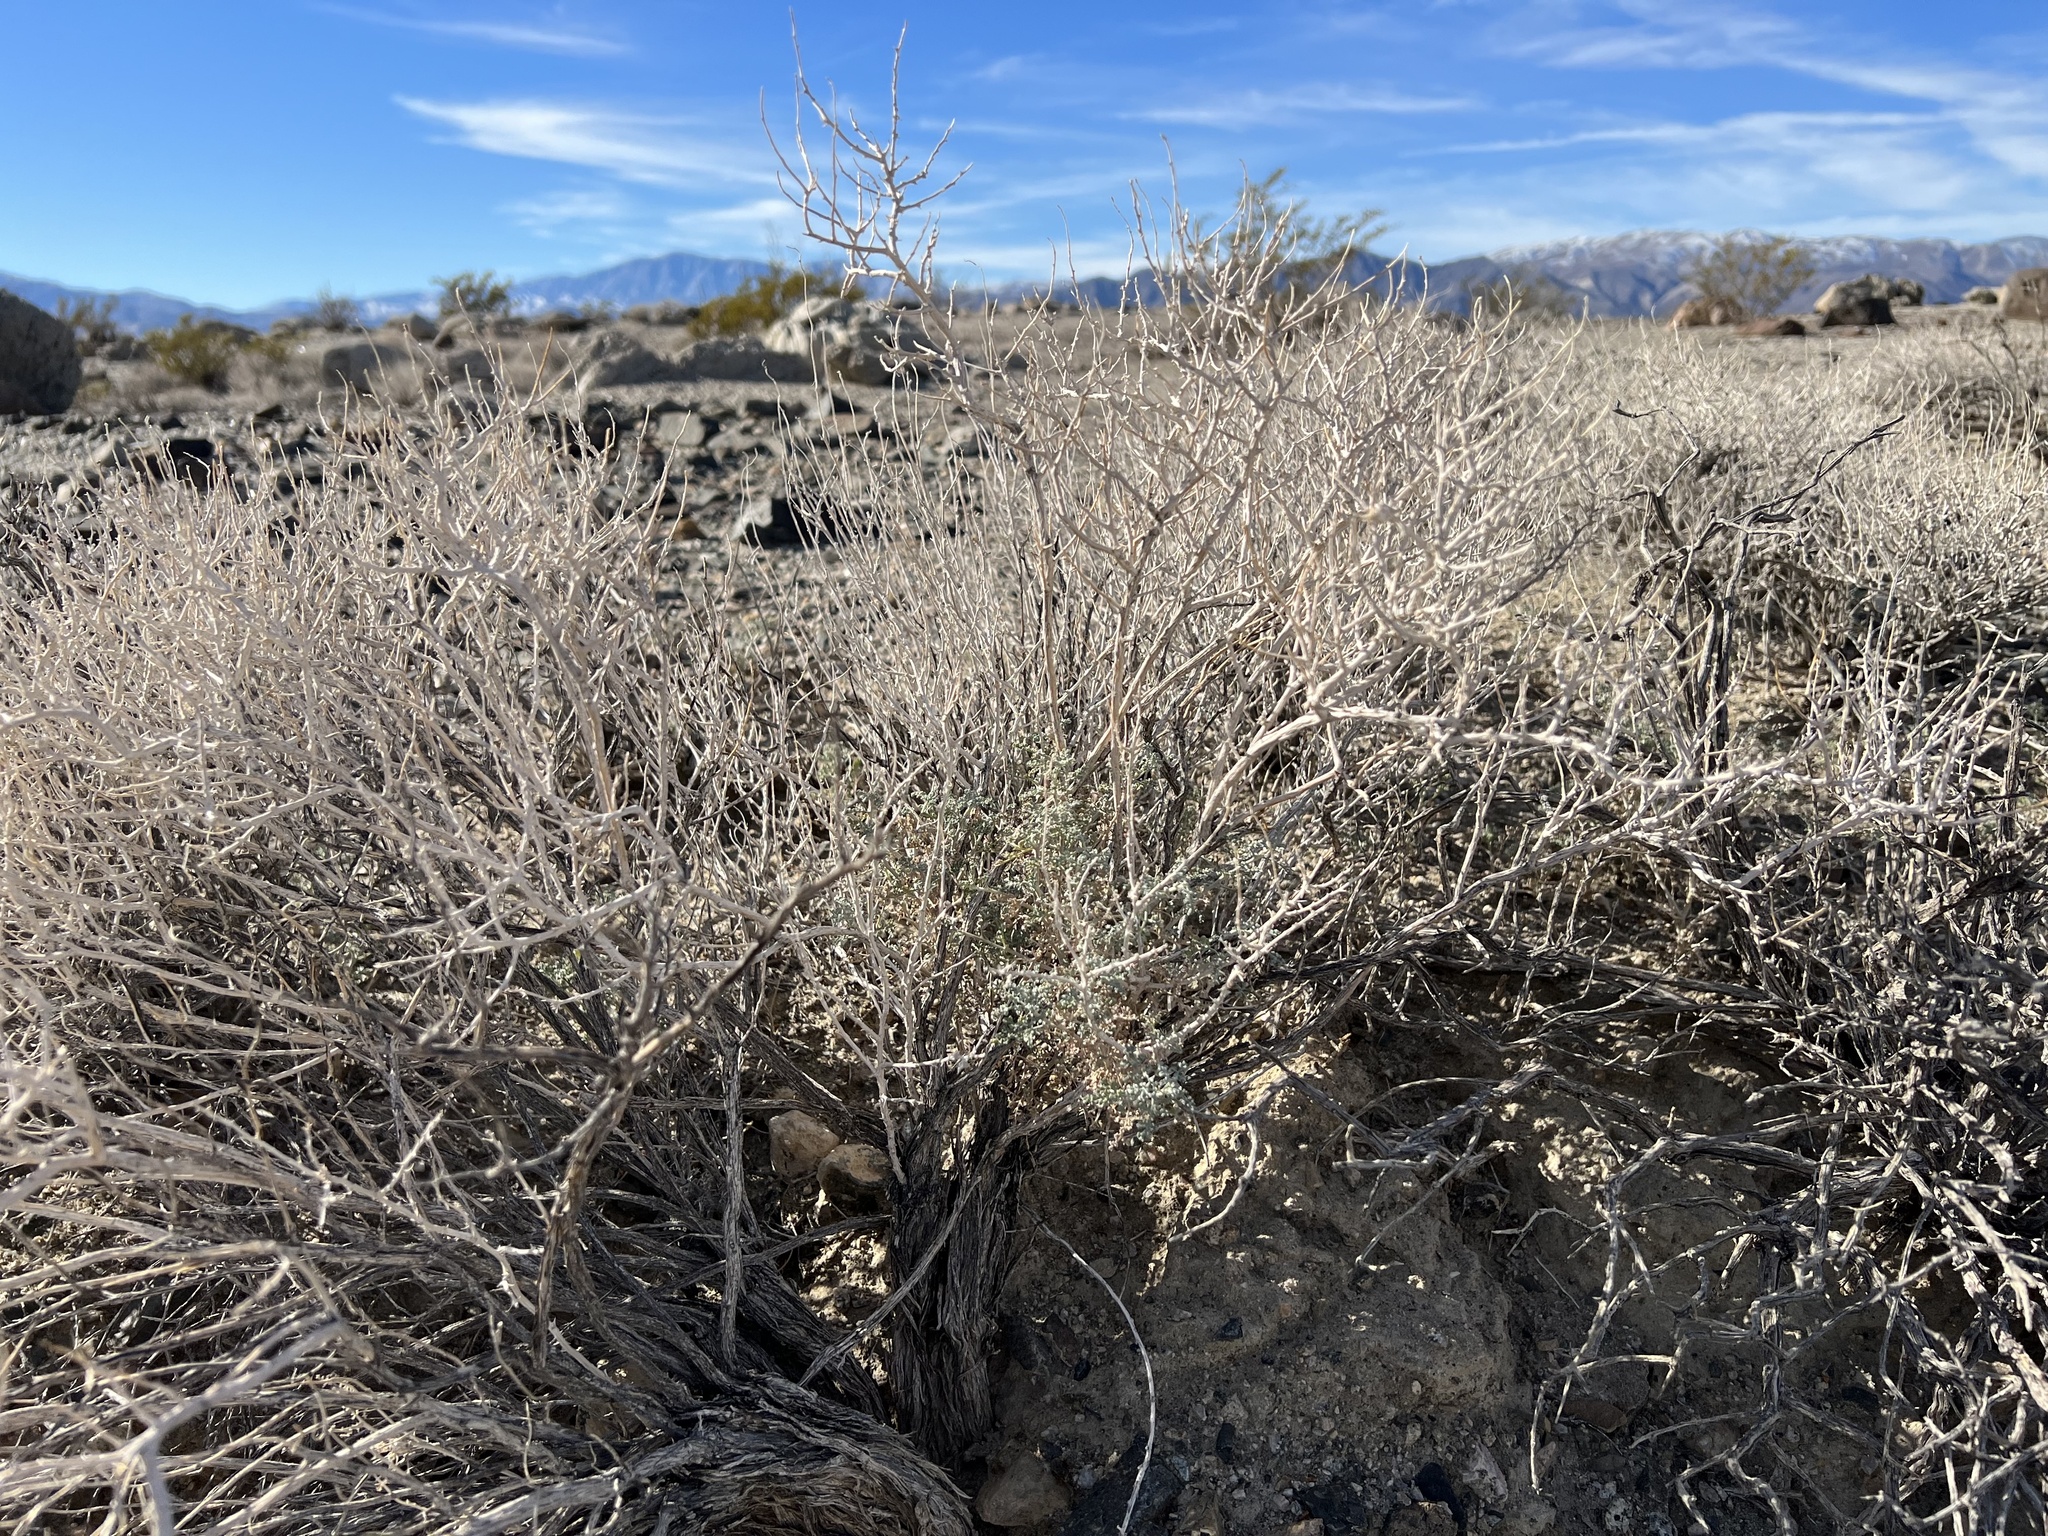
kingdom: Plantae
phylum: Tracheophyta
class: Magnoliopsida
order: Asterales
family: Asteraceae
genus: Ambrosia
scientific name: Ambrosia dumosa
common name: Bur-sage
